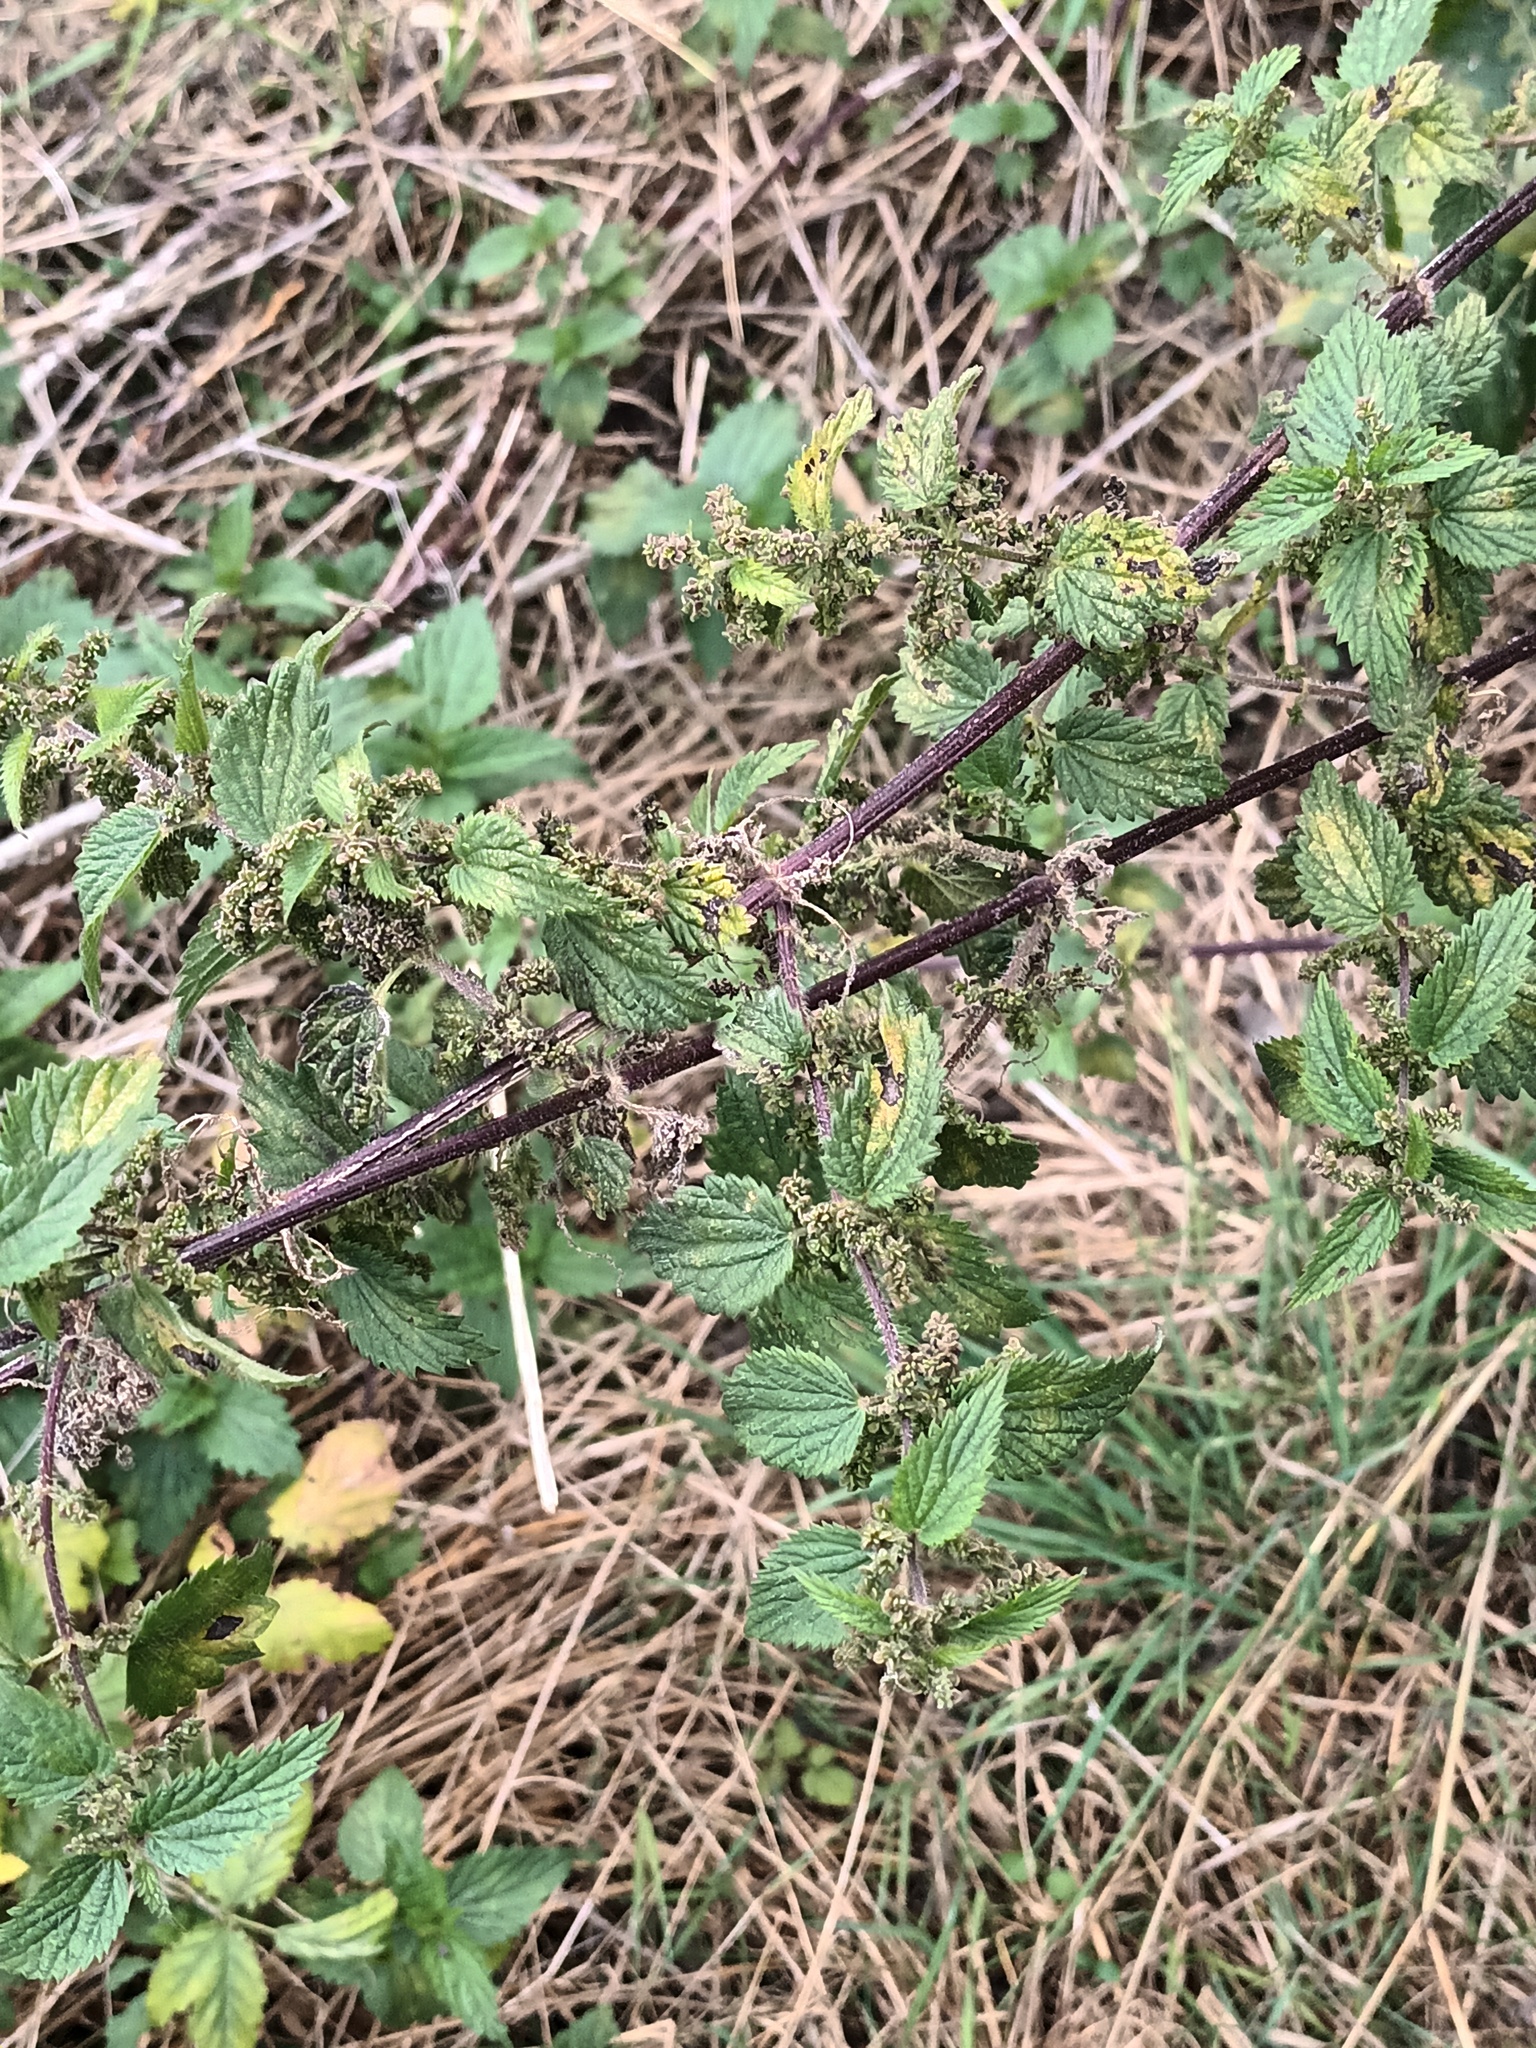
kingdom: Plantae
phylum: Tracheophyta
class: Magnoliopsida
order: Rosales
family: Urticaceae
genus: Urtica
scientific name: Urtica dioica
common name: Common nettle
